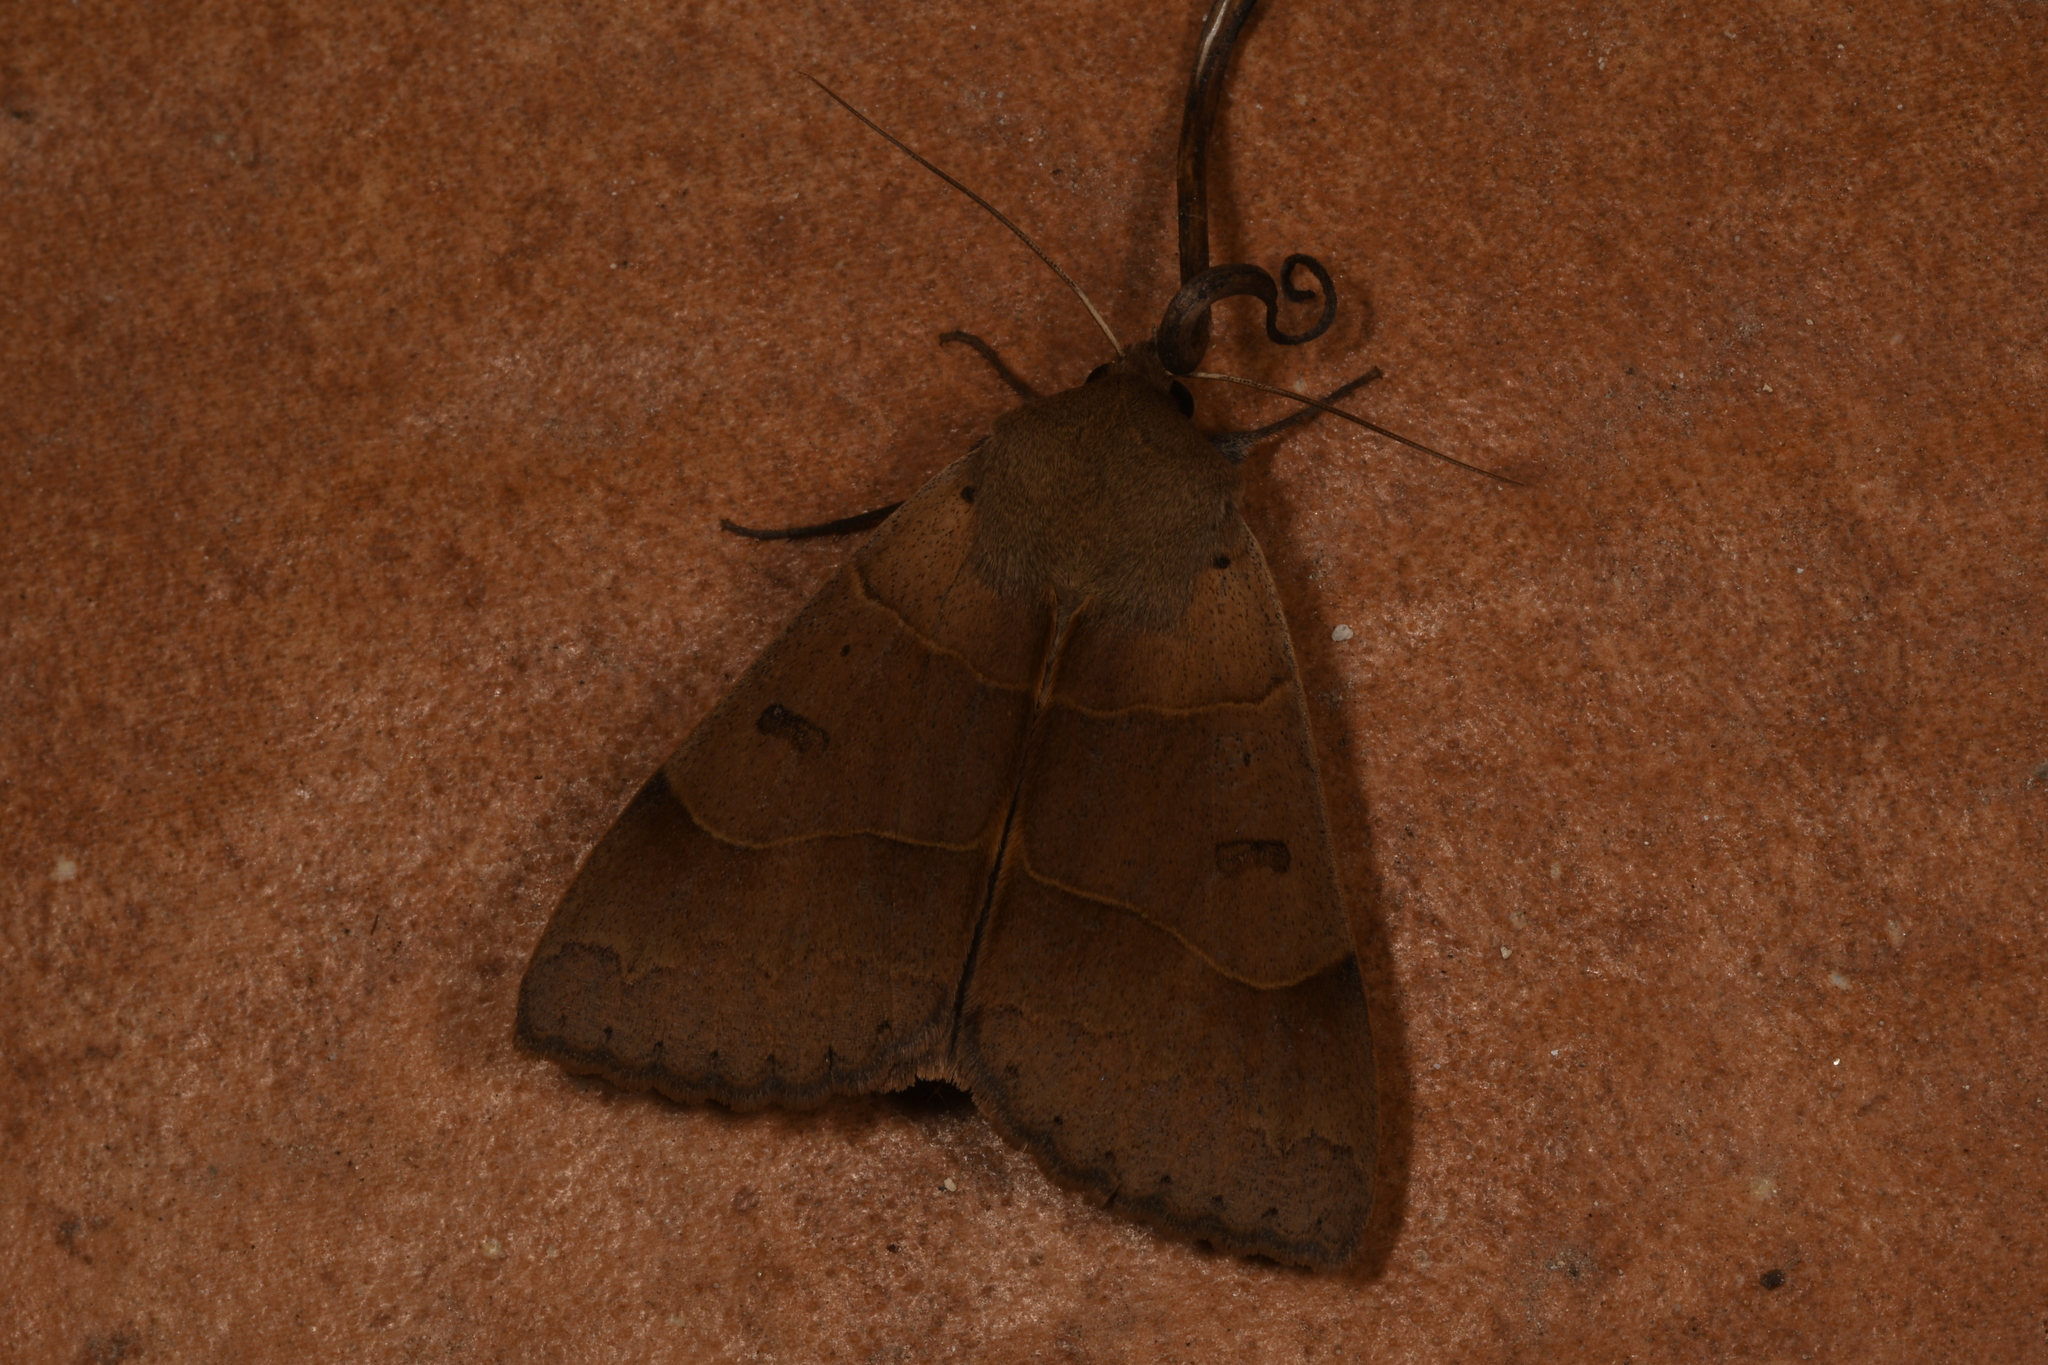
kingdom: Animalia
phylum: Arthropoda
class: Insecta
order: Lepidoptera
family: Erebidae
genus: Minucia
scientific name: Minucia lunaris
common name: Lunar double-stripe
